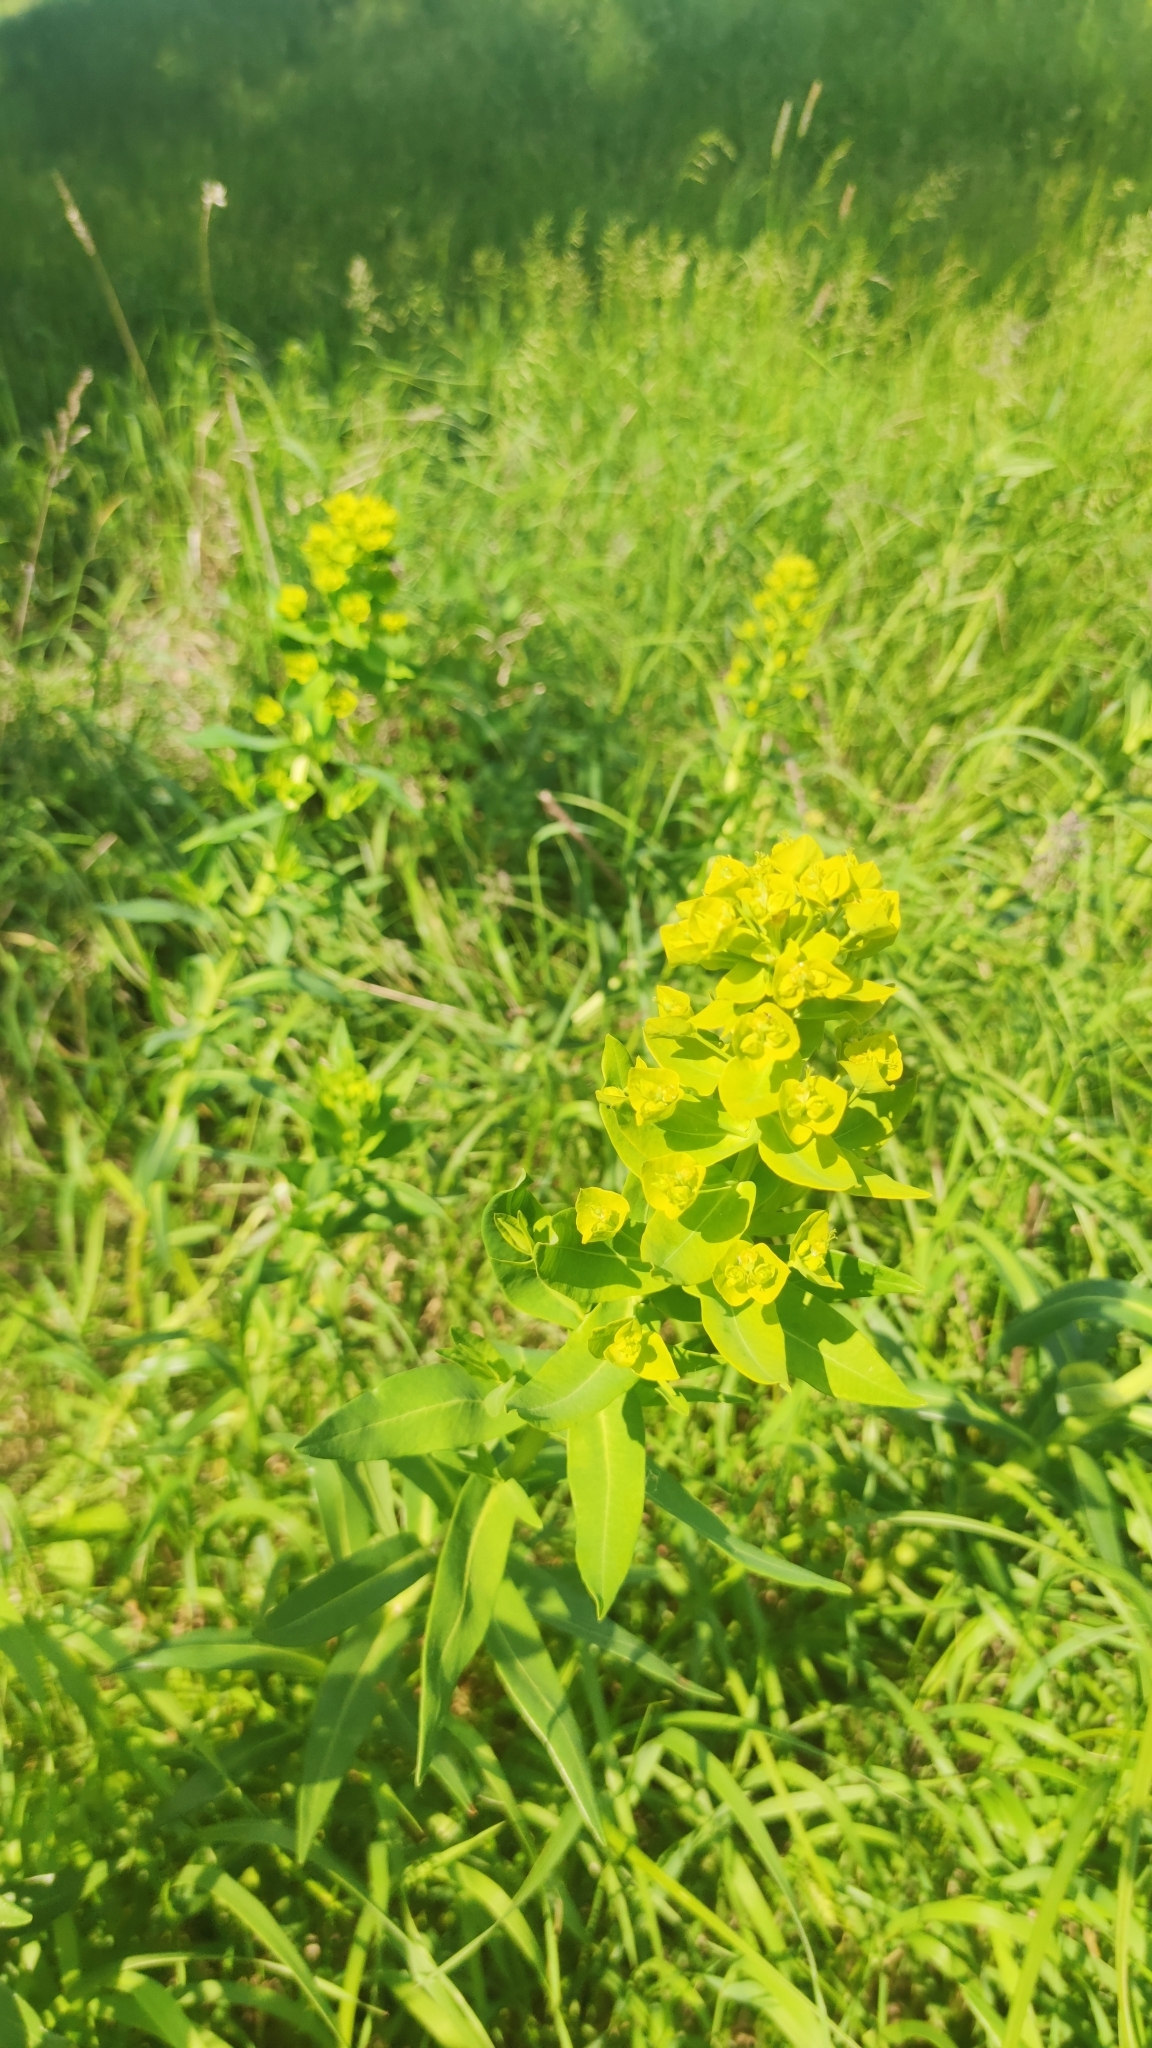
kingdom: Plantae
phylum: Tracheophyta
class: Magnoliopsida
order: Malpighiales
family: Euphorbiaceae
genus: Euphorbia
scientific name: Euphorbia palustris
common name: Marsh spurge
